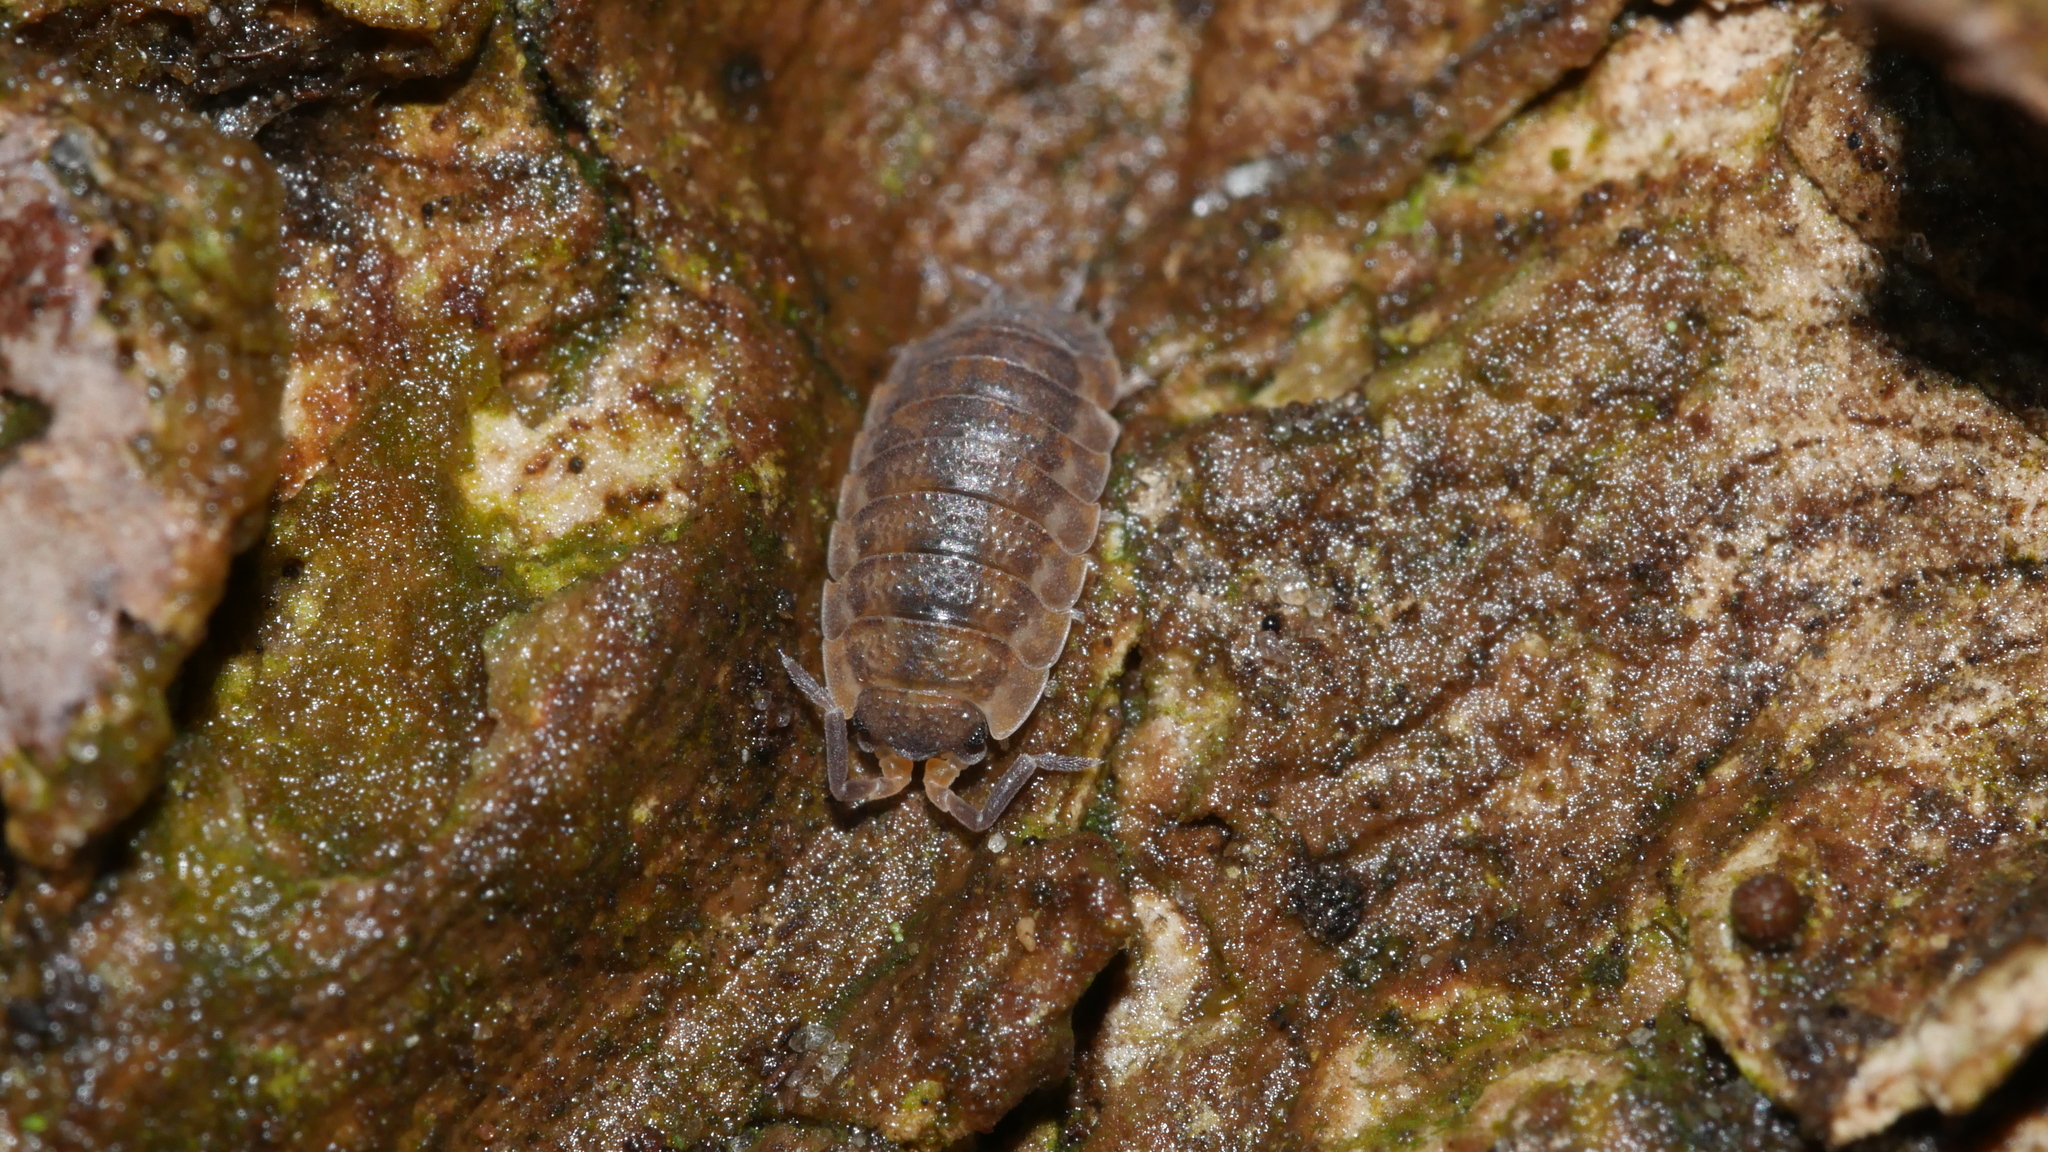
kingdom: Animalia
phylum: Arthropoda
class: Malacostraca
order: Isopoda
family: Porcellionidae
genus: Porcellio
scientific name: Porcellio scaber
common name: Common rough woodlouse
